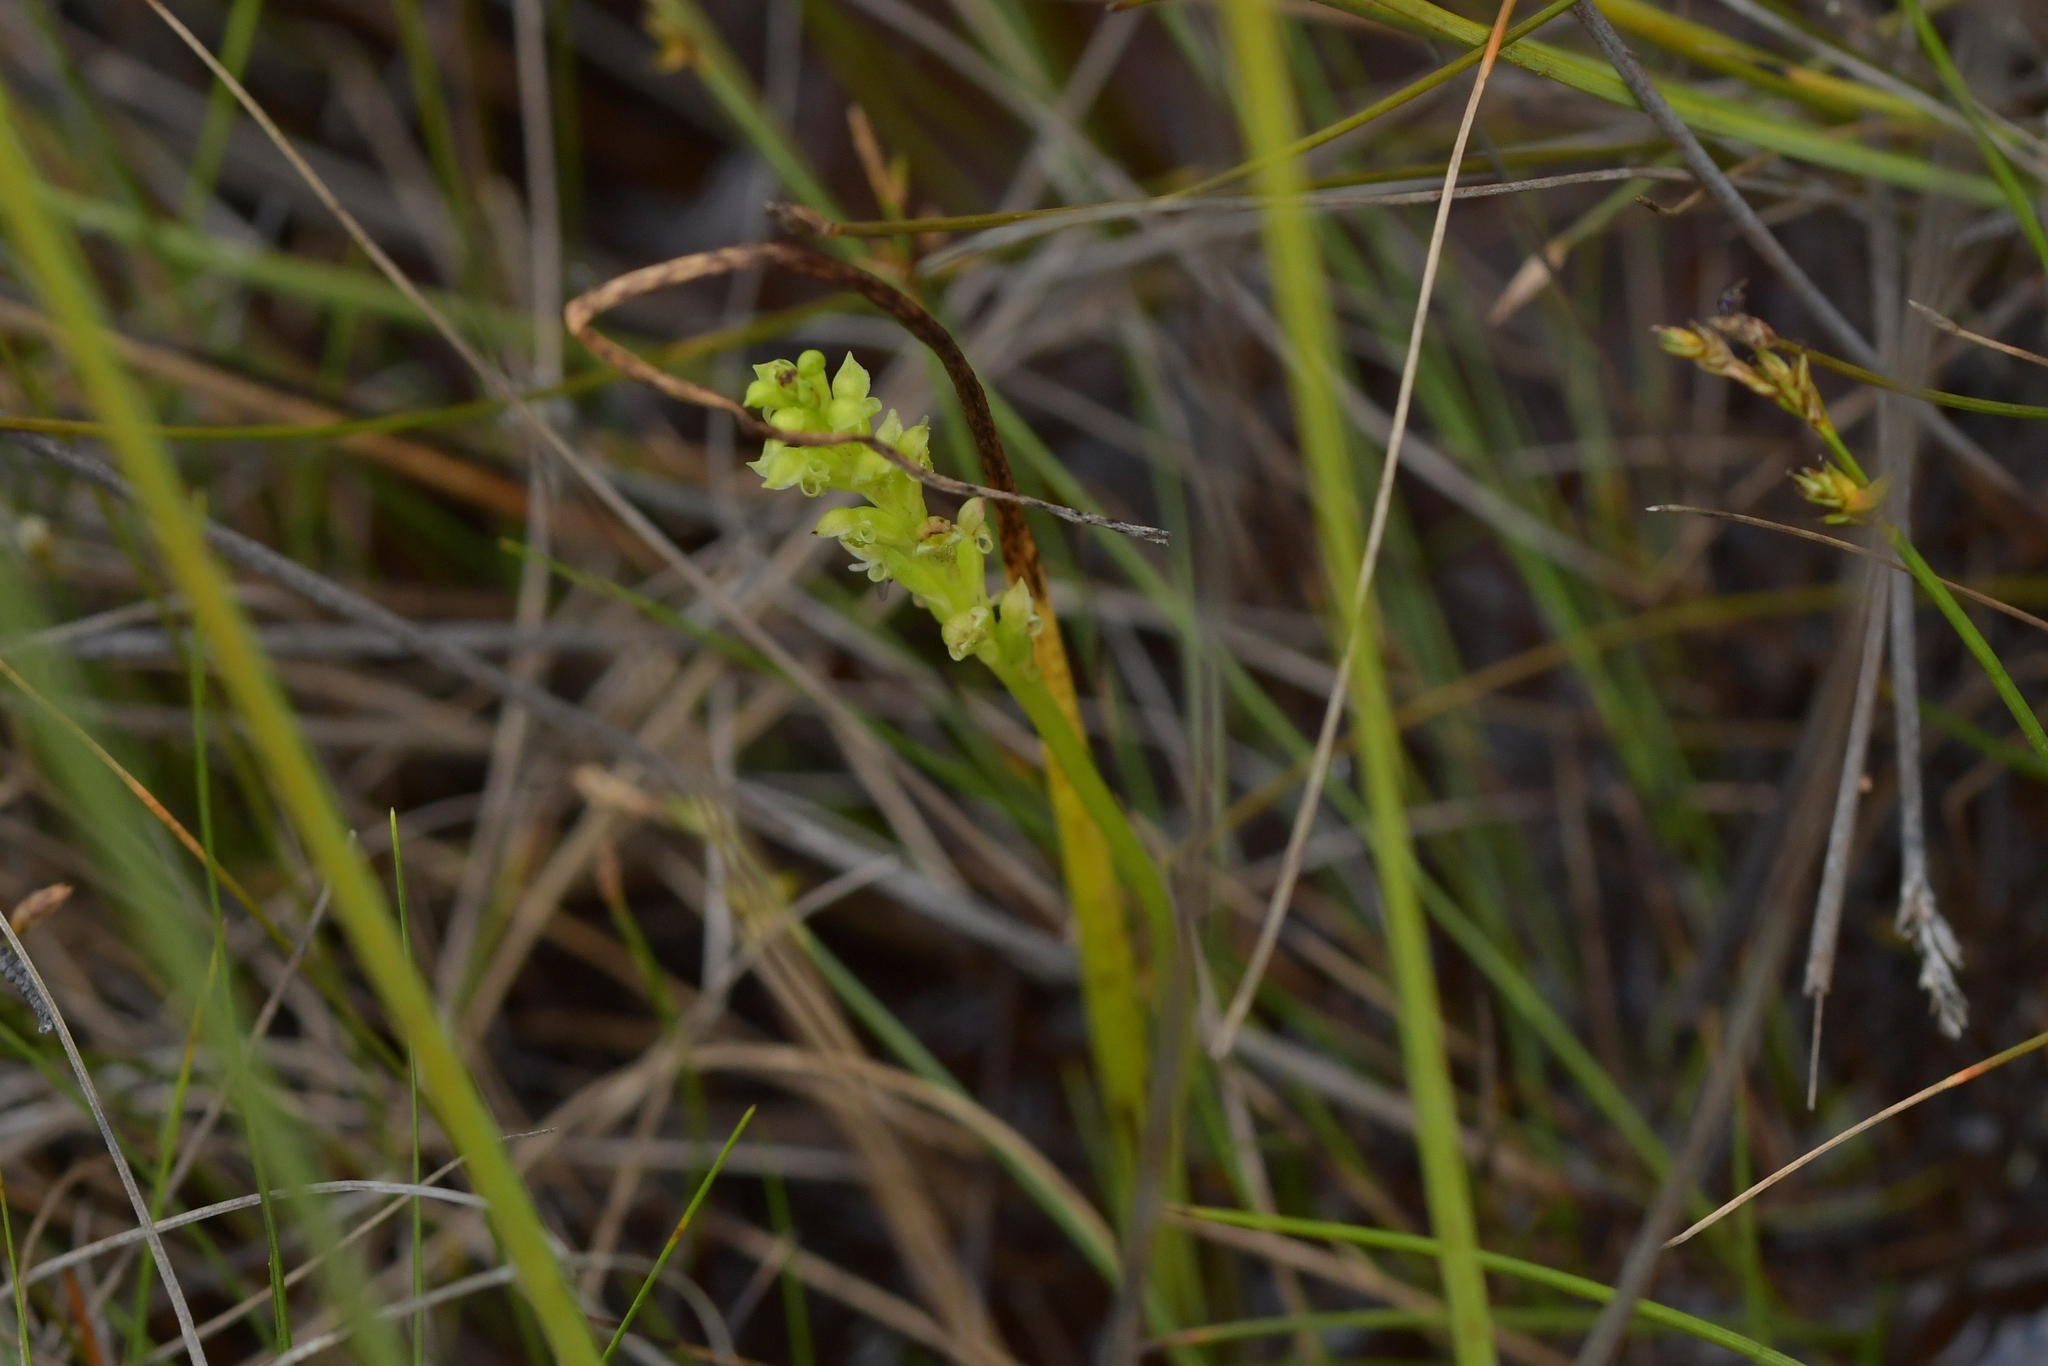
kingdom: Plantae
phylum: Tracheophyta
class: Liliopsida
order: Asparagales
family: Orchidaceae
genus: Microtis
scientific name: Microtis unifolia
